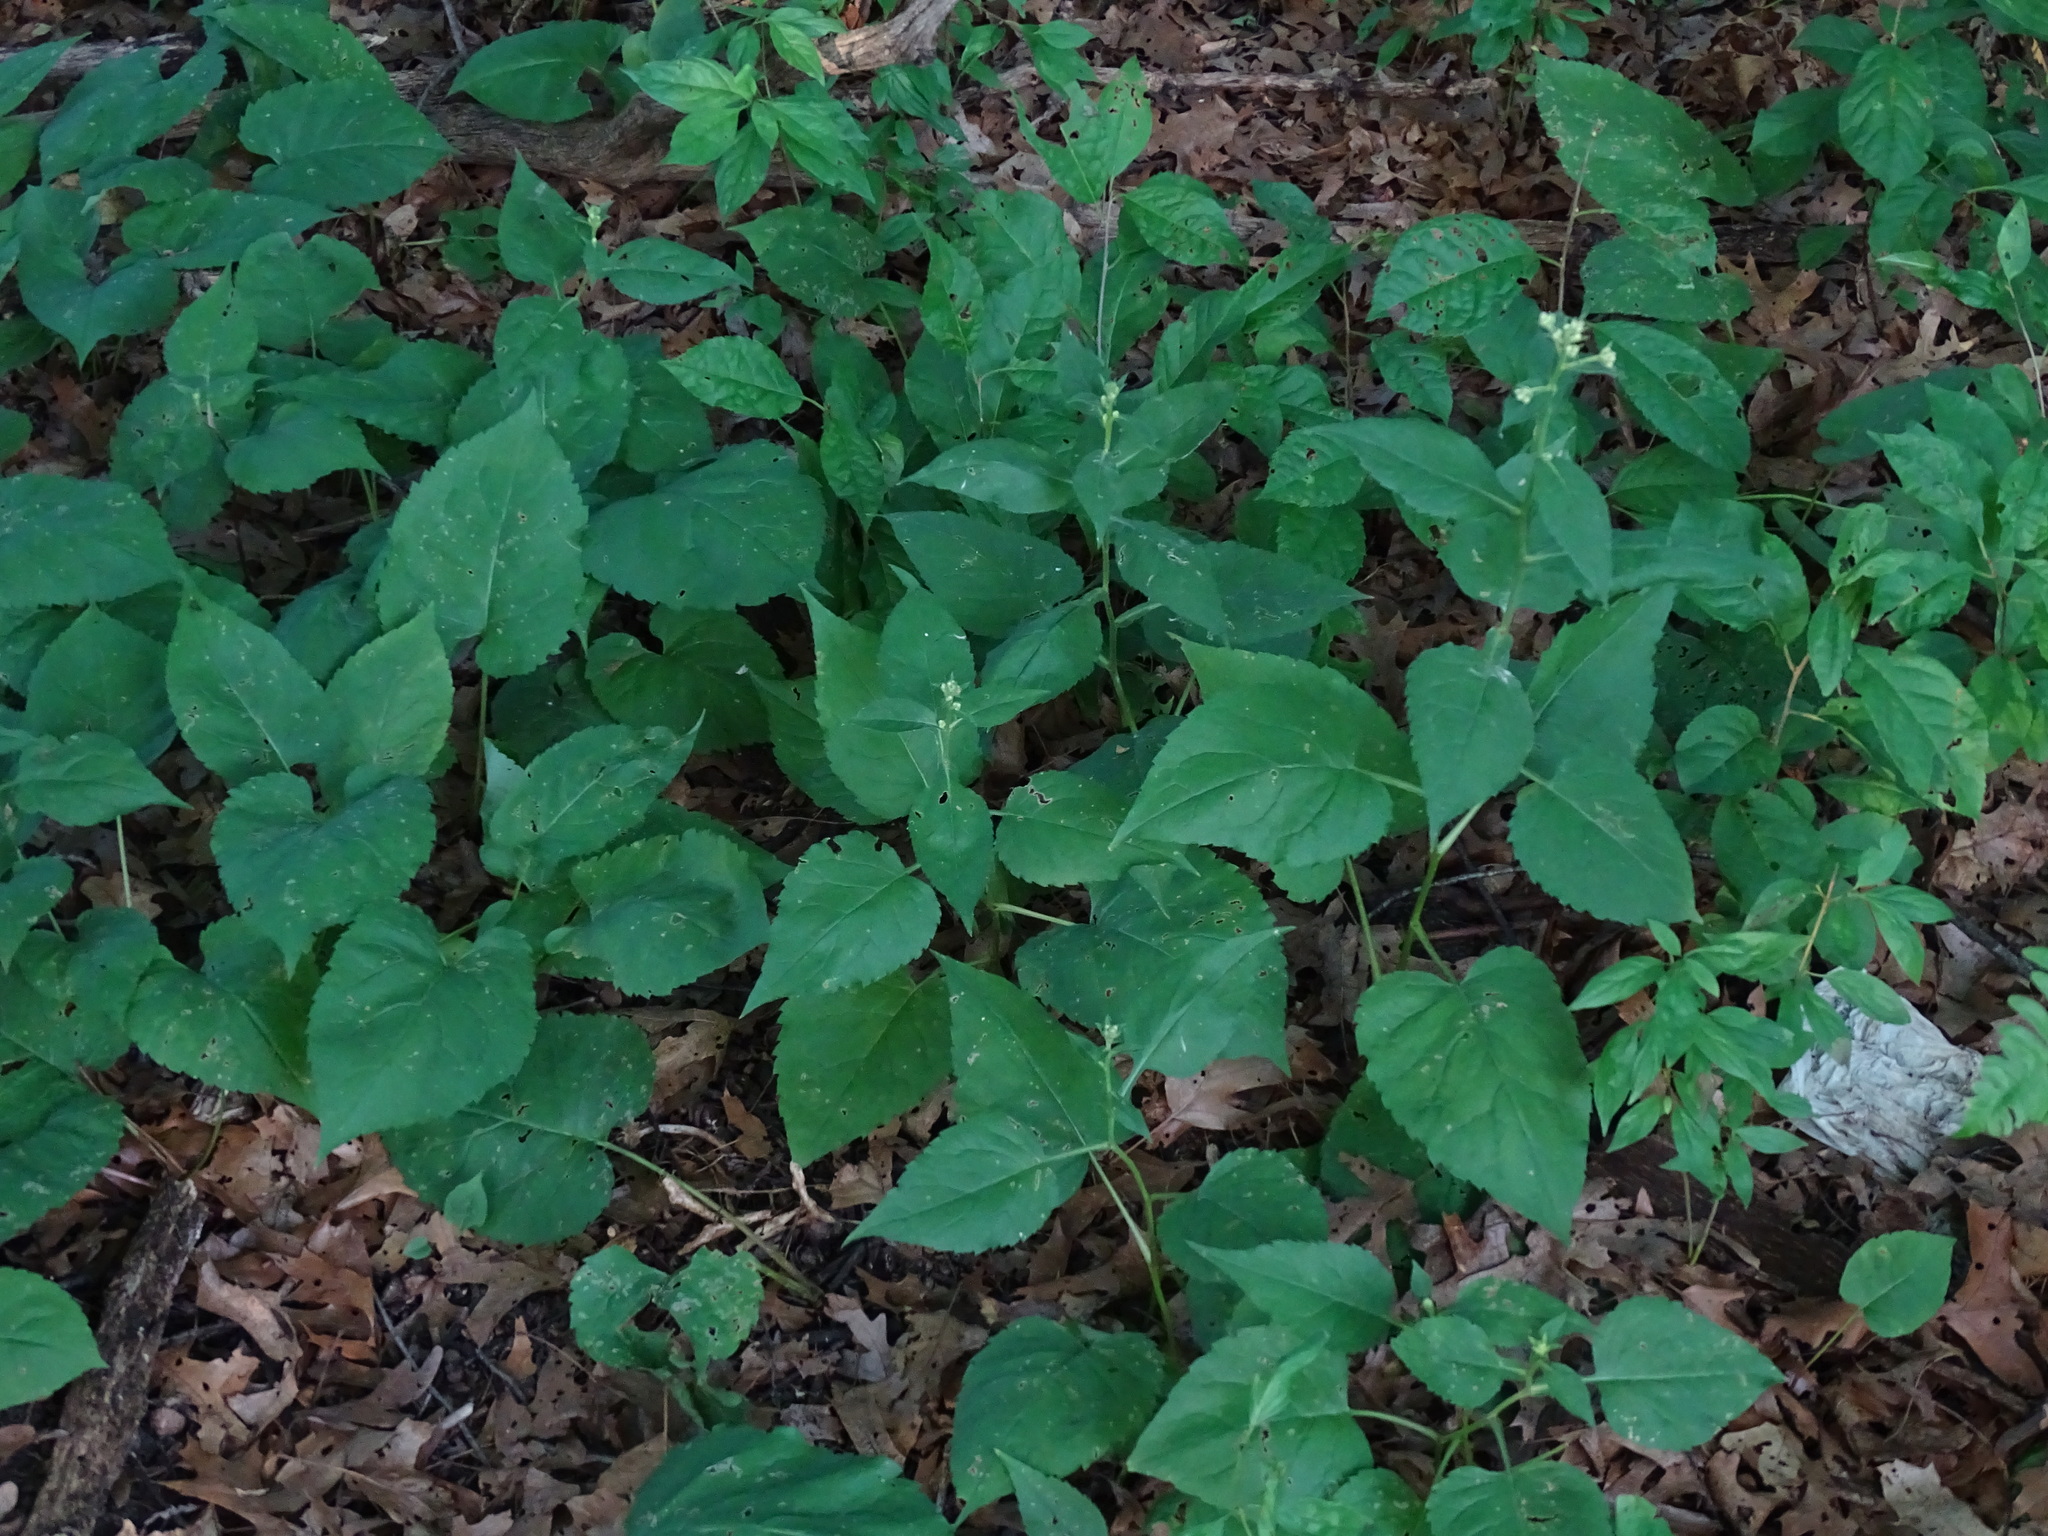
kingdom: Plantae
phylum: Tracheophyta
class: Magnoliopsida
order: Asterales
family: Asteraceae
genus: Eurybia
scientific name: Eurybia macrophylla
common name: Big-leaved aster
